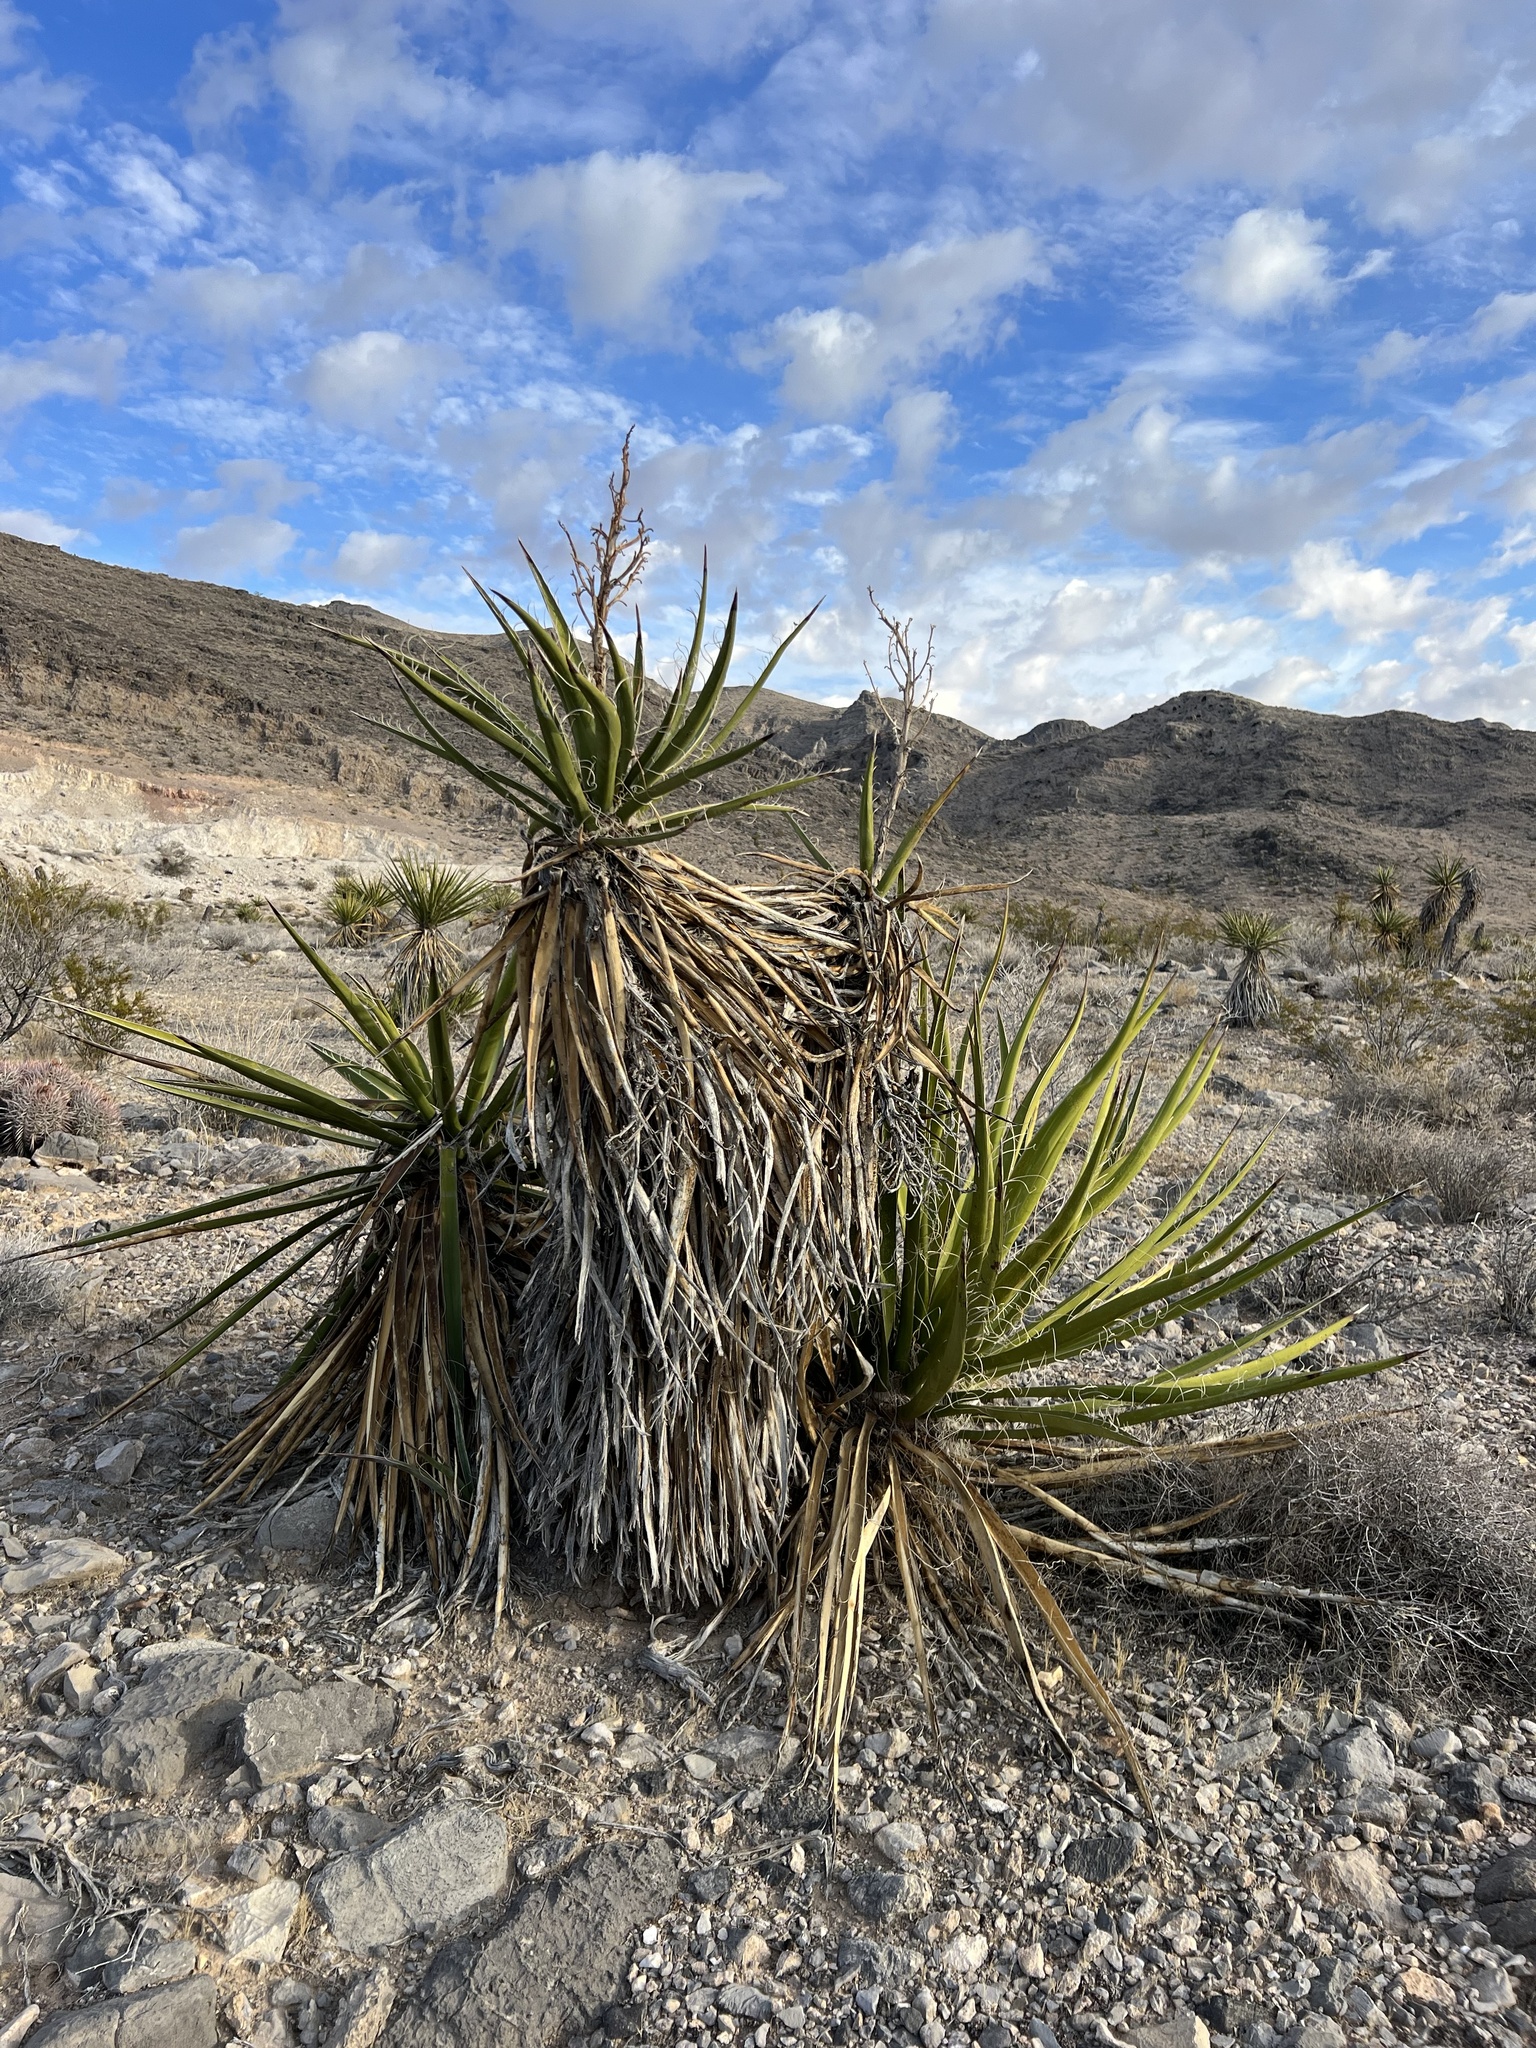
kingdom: Plantae
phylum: Tracheophyta
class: Liliopsida
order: Asparagales
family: Asparagaceae
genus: Yucca
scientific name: Yucca schidigera
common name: Mojave yucca
